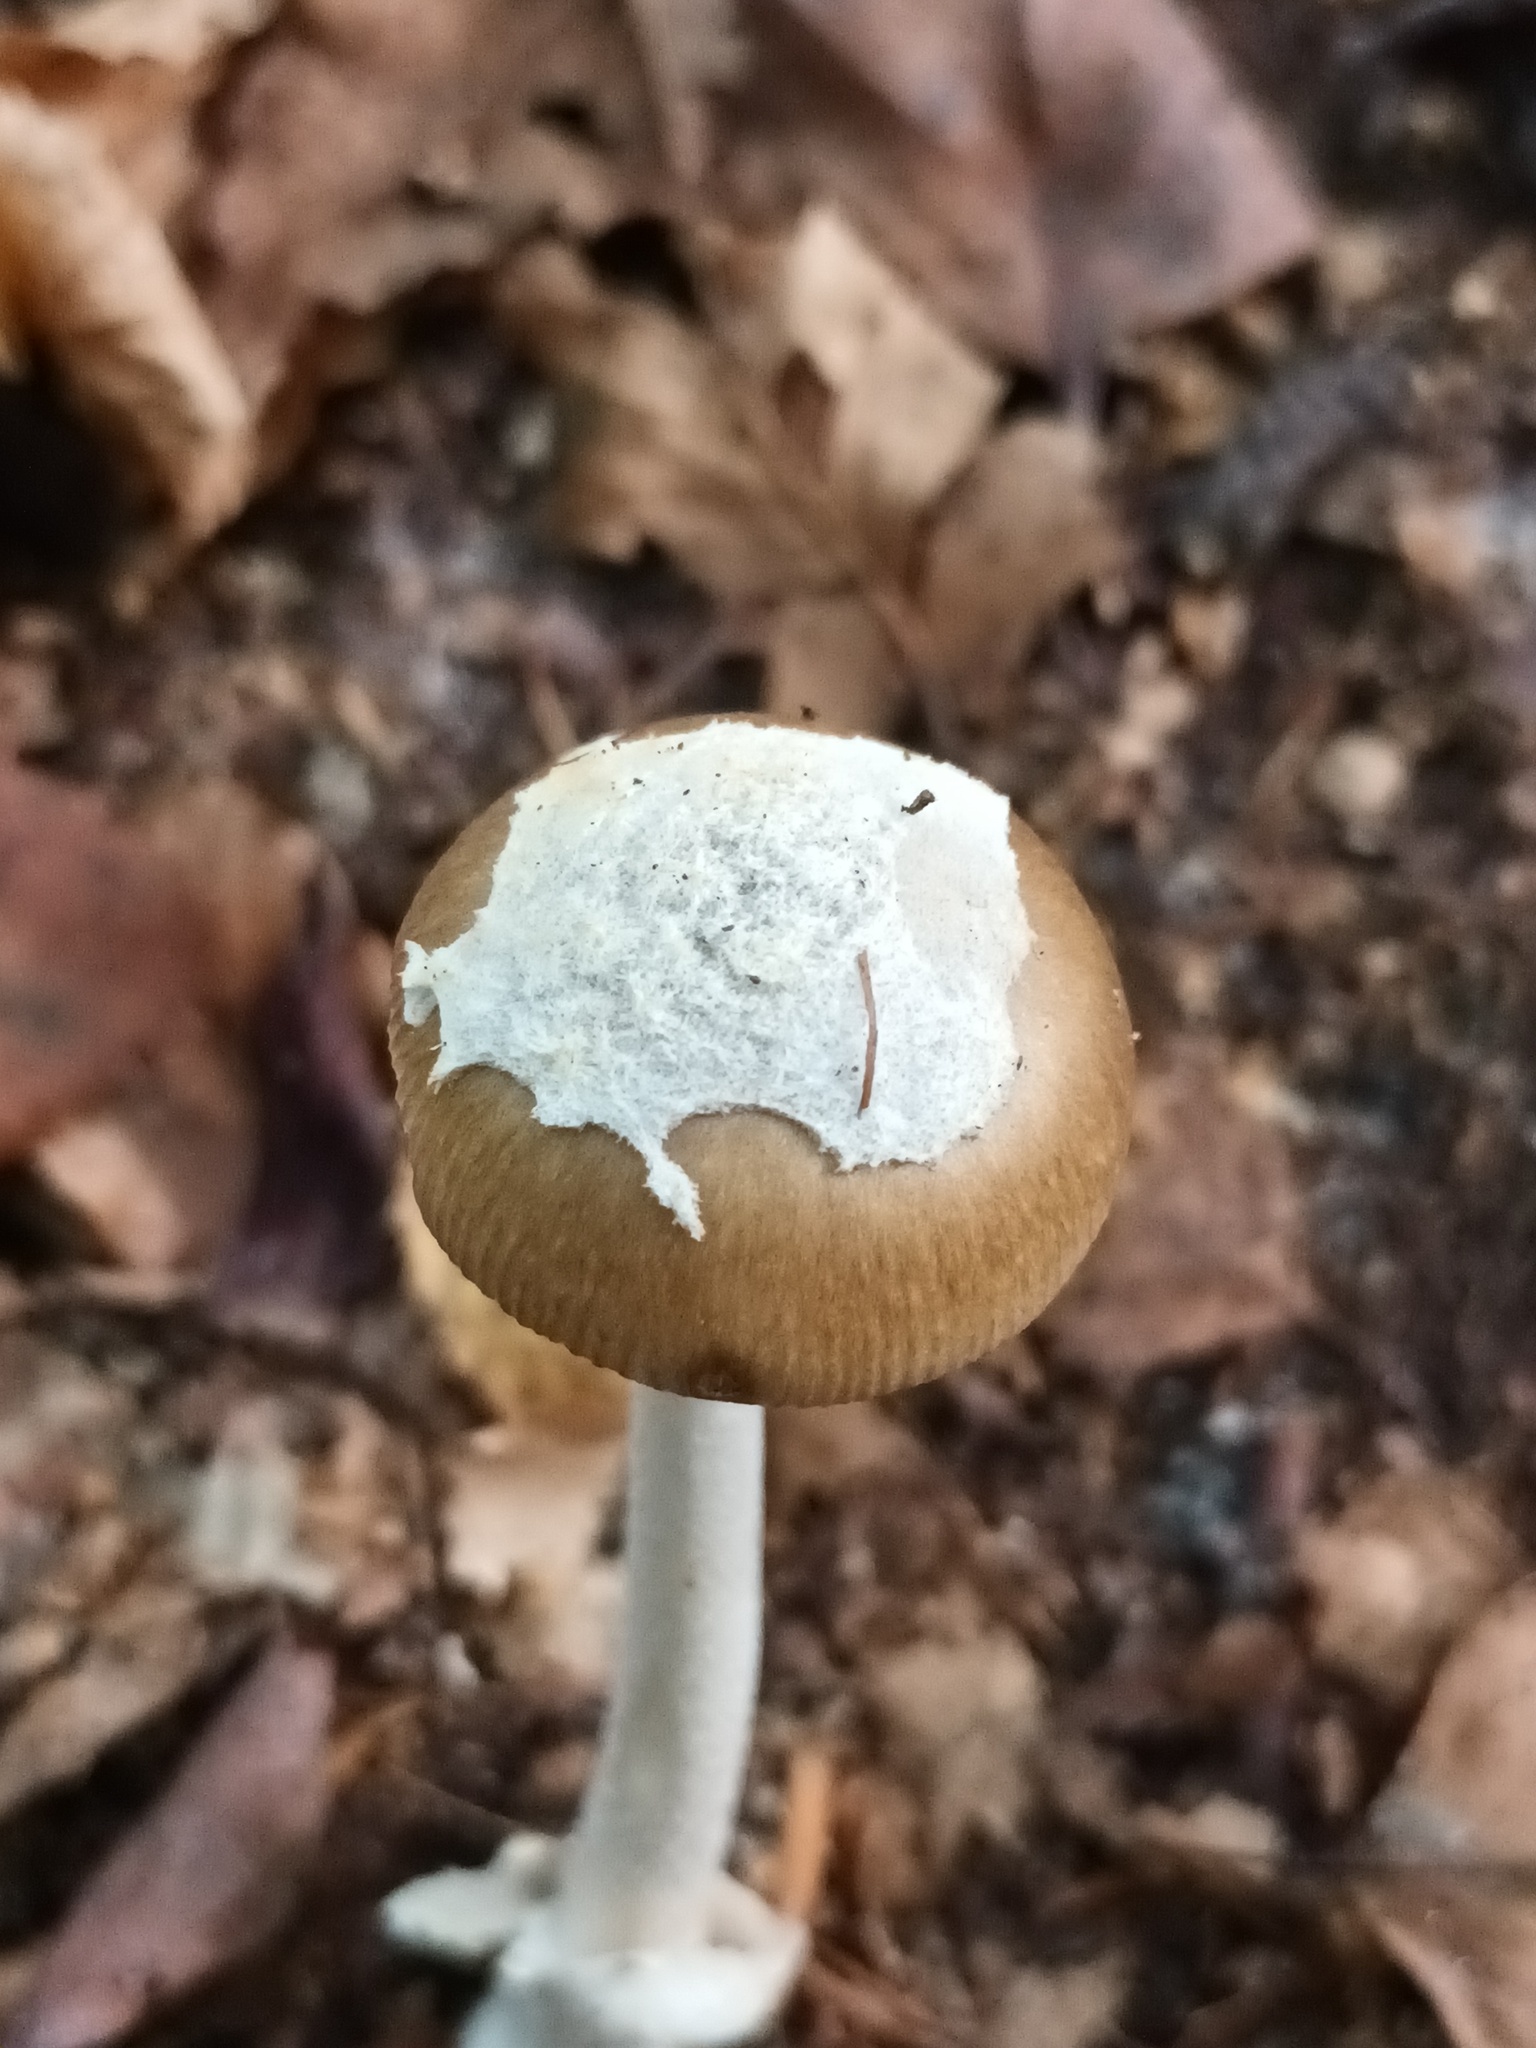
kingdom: Fungi
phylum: Basidiomycota
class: Agaricomycetes
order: Agaricales
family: Amanitaceae
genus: Amanita
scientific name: Amanita betulae
